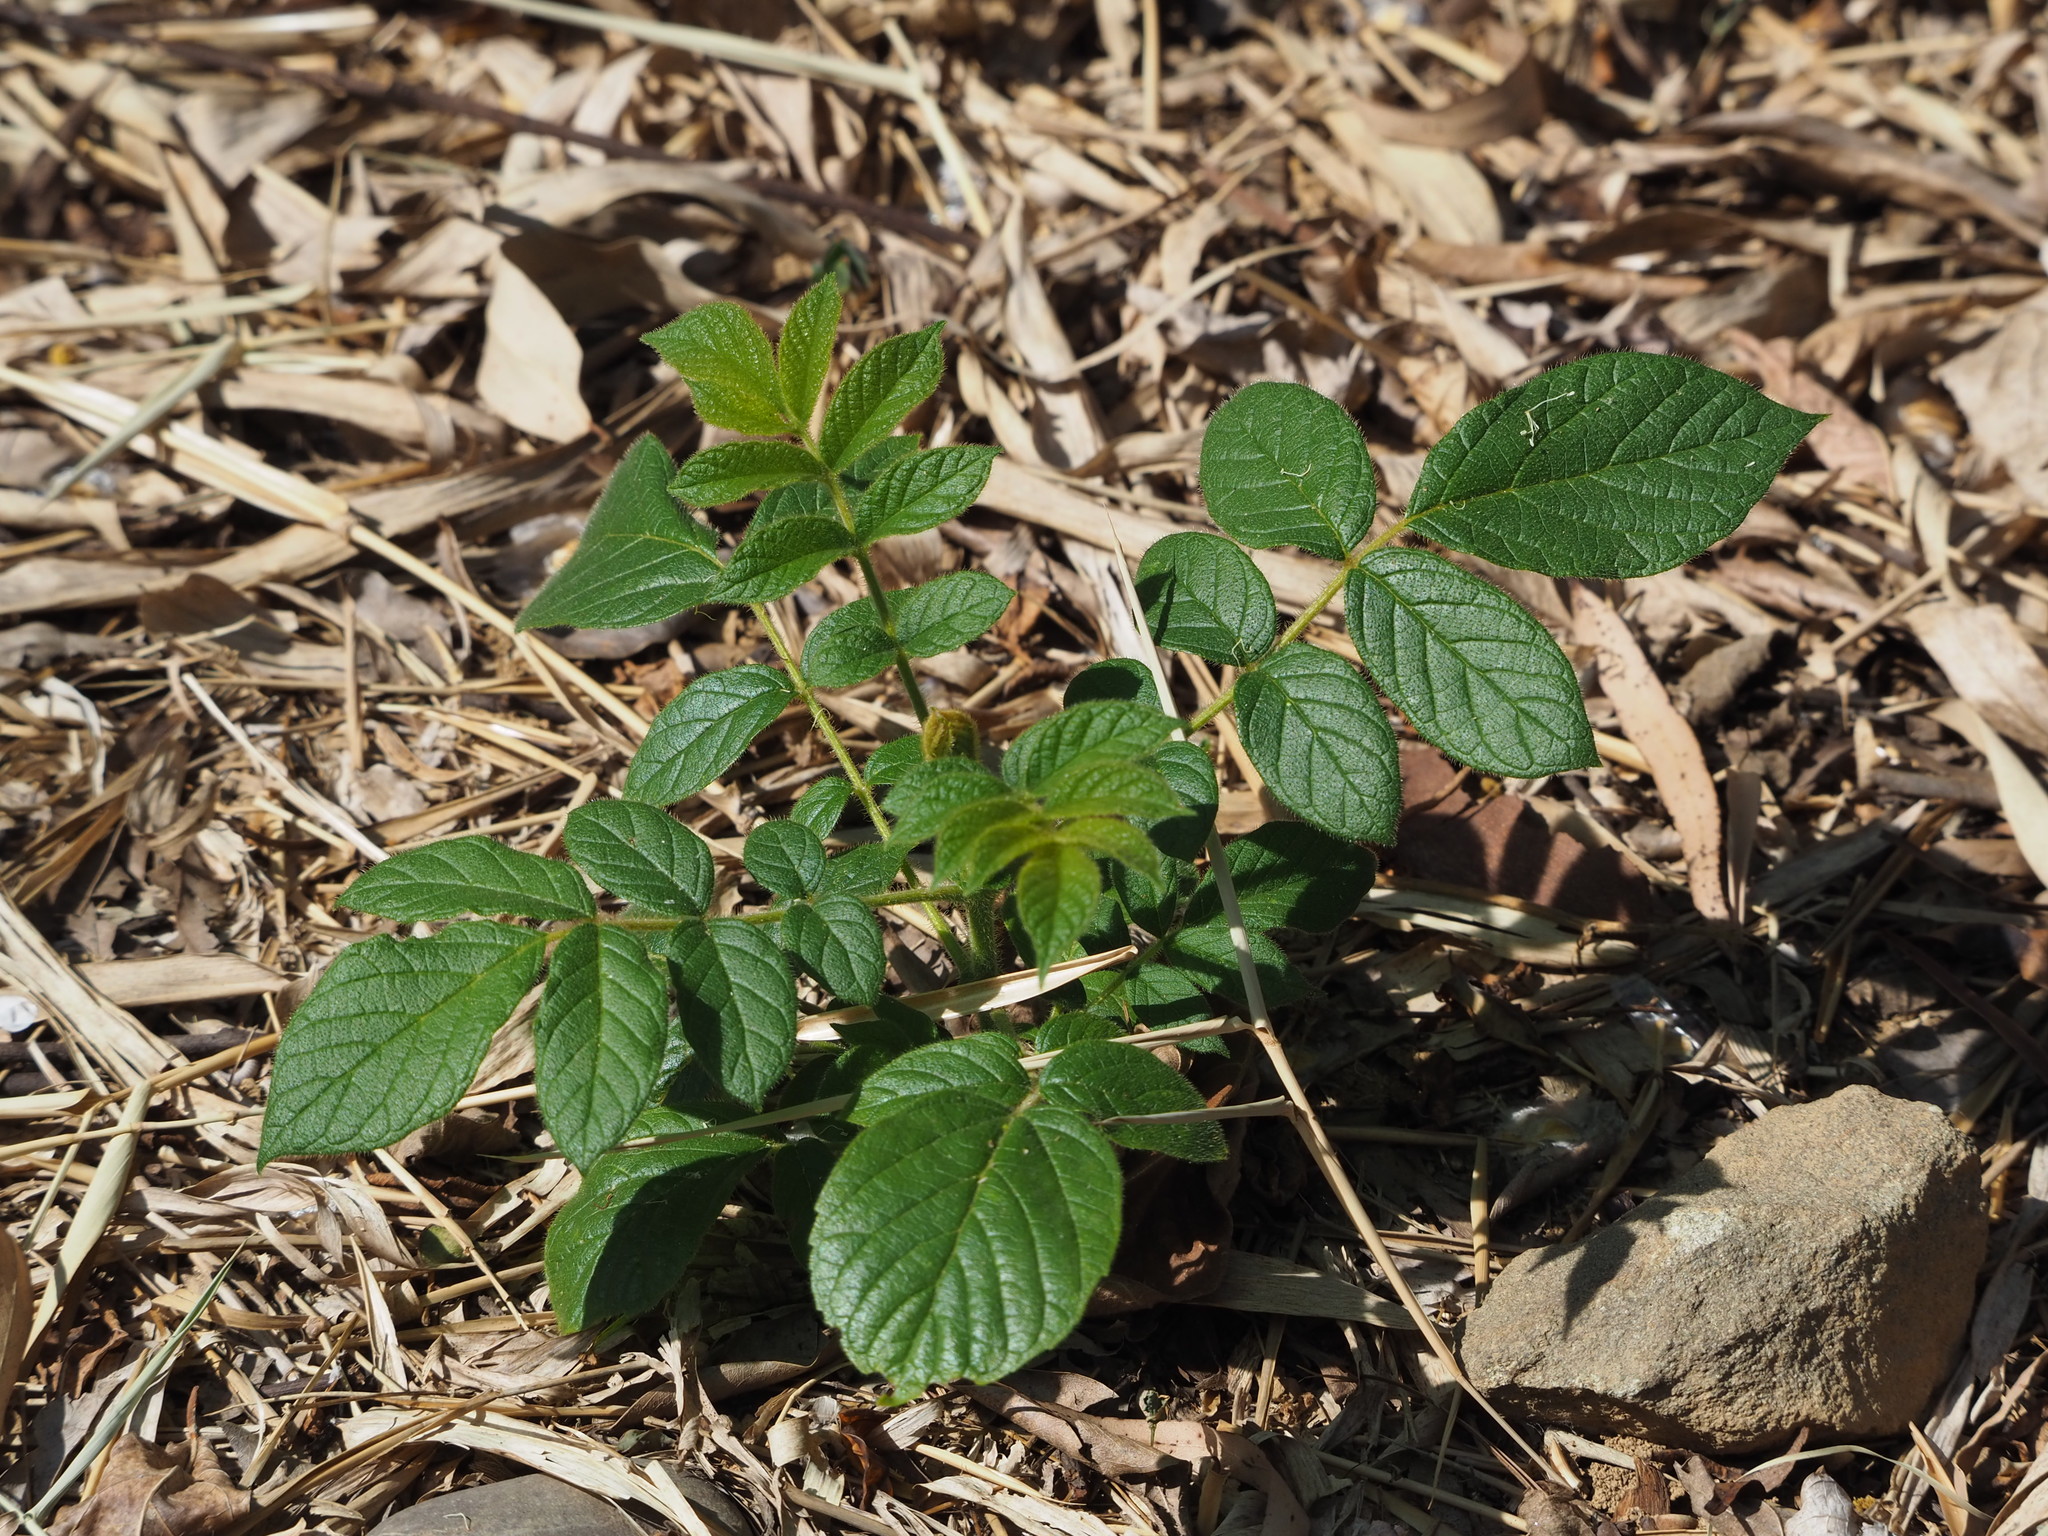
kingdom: Plantae
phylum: Tracheophyta
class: Magnoliopsida
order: Lamiales
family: Bignoniaceae
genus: Spathodea
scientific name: Spathodea campanulata
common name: African tuliptree
